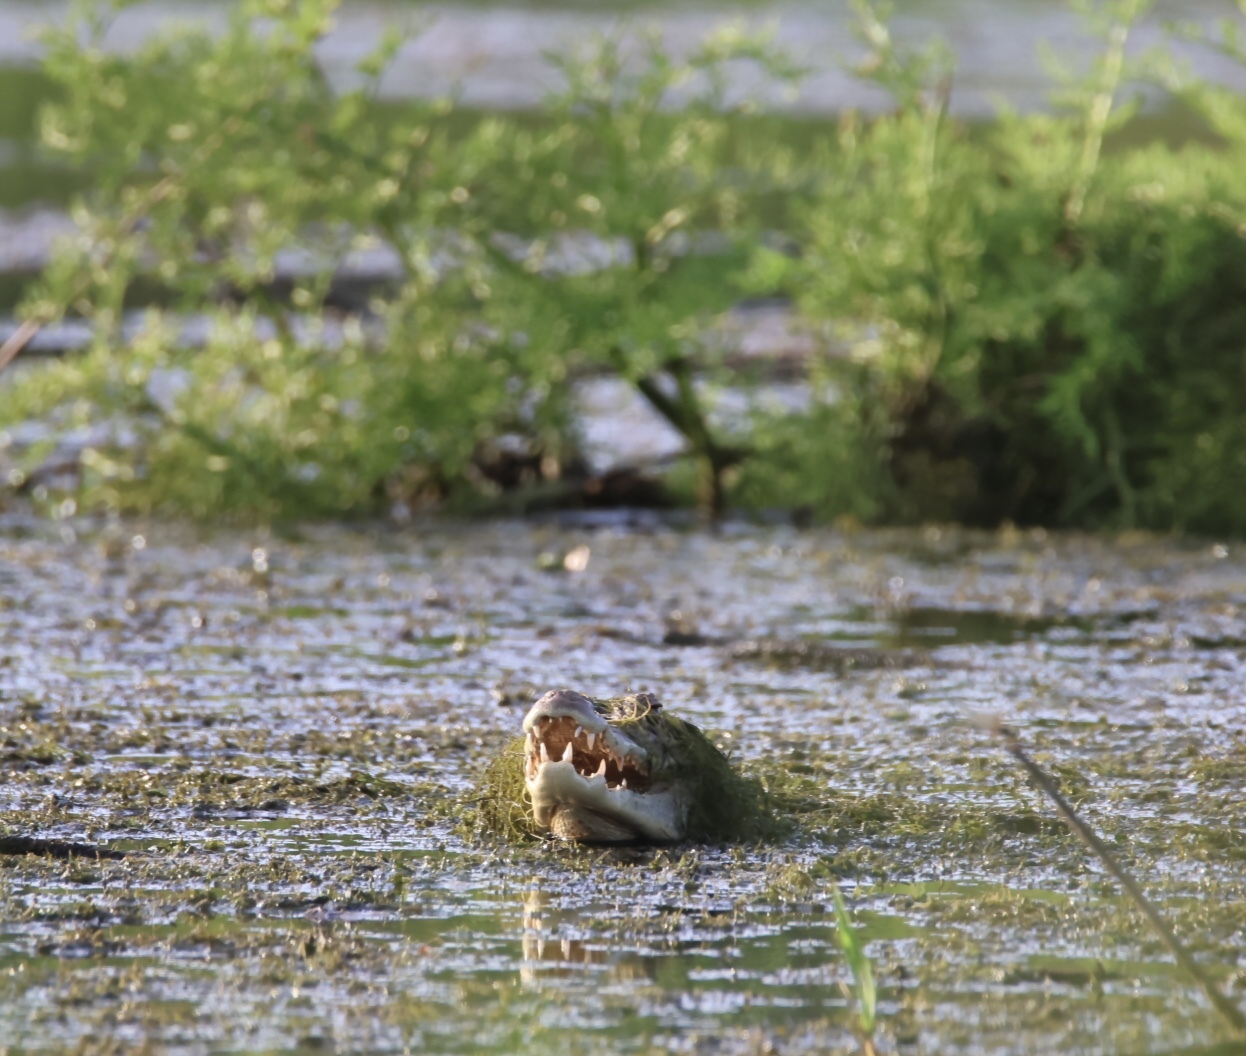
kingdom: Animalia
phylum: Chordata
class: Crocodylia
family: Alligatoridae
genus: Caiman
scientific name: Caiman crocodilus
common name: Common caiman
